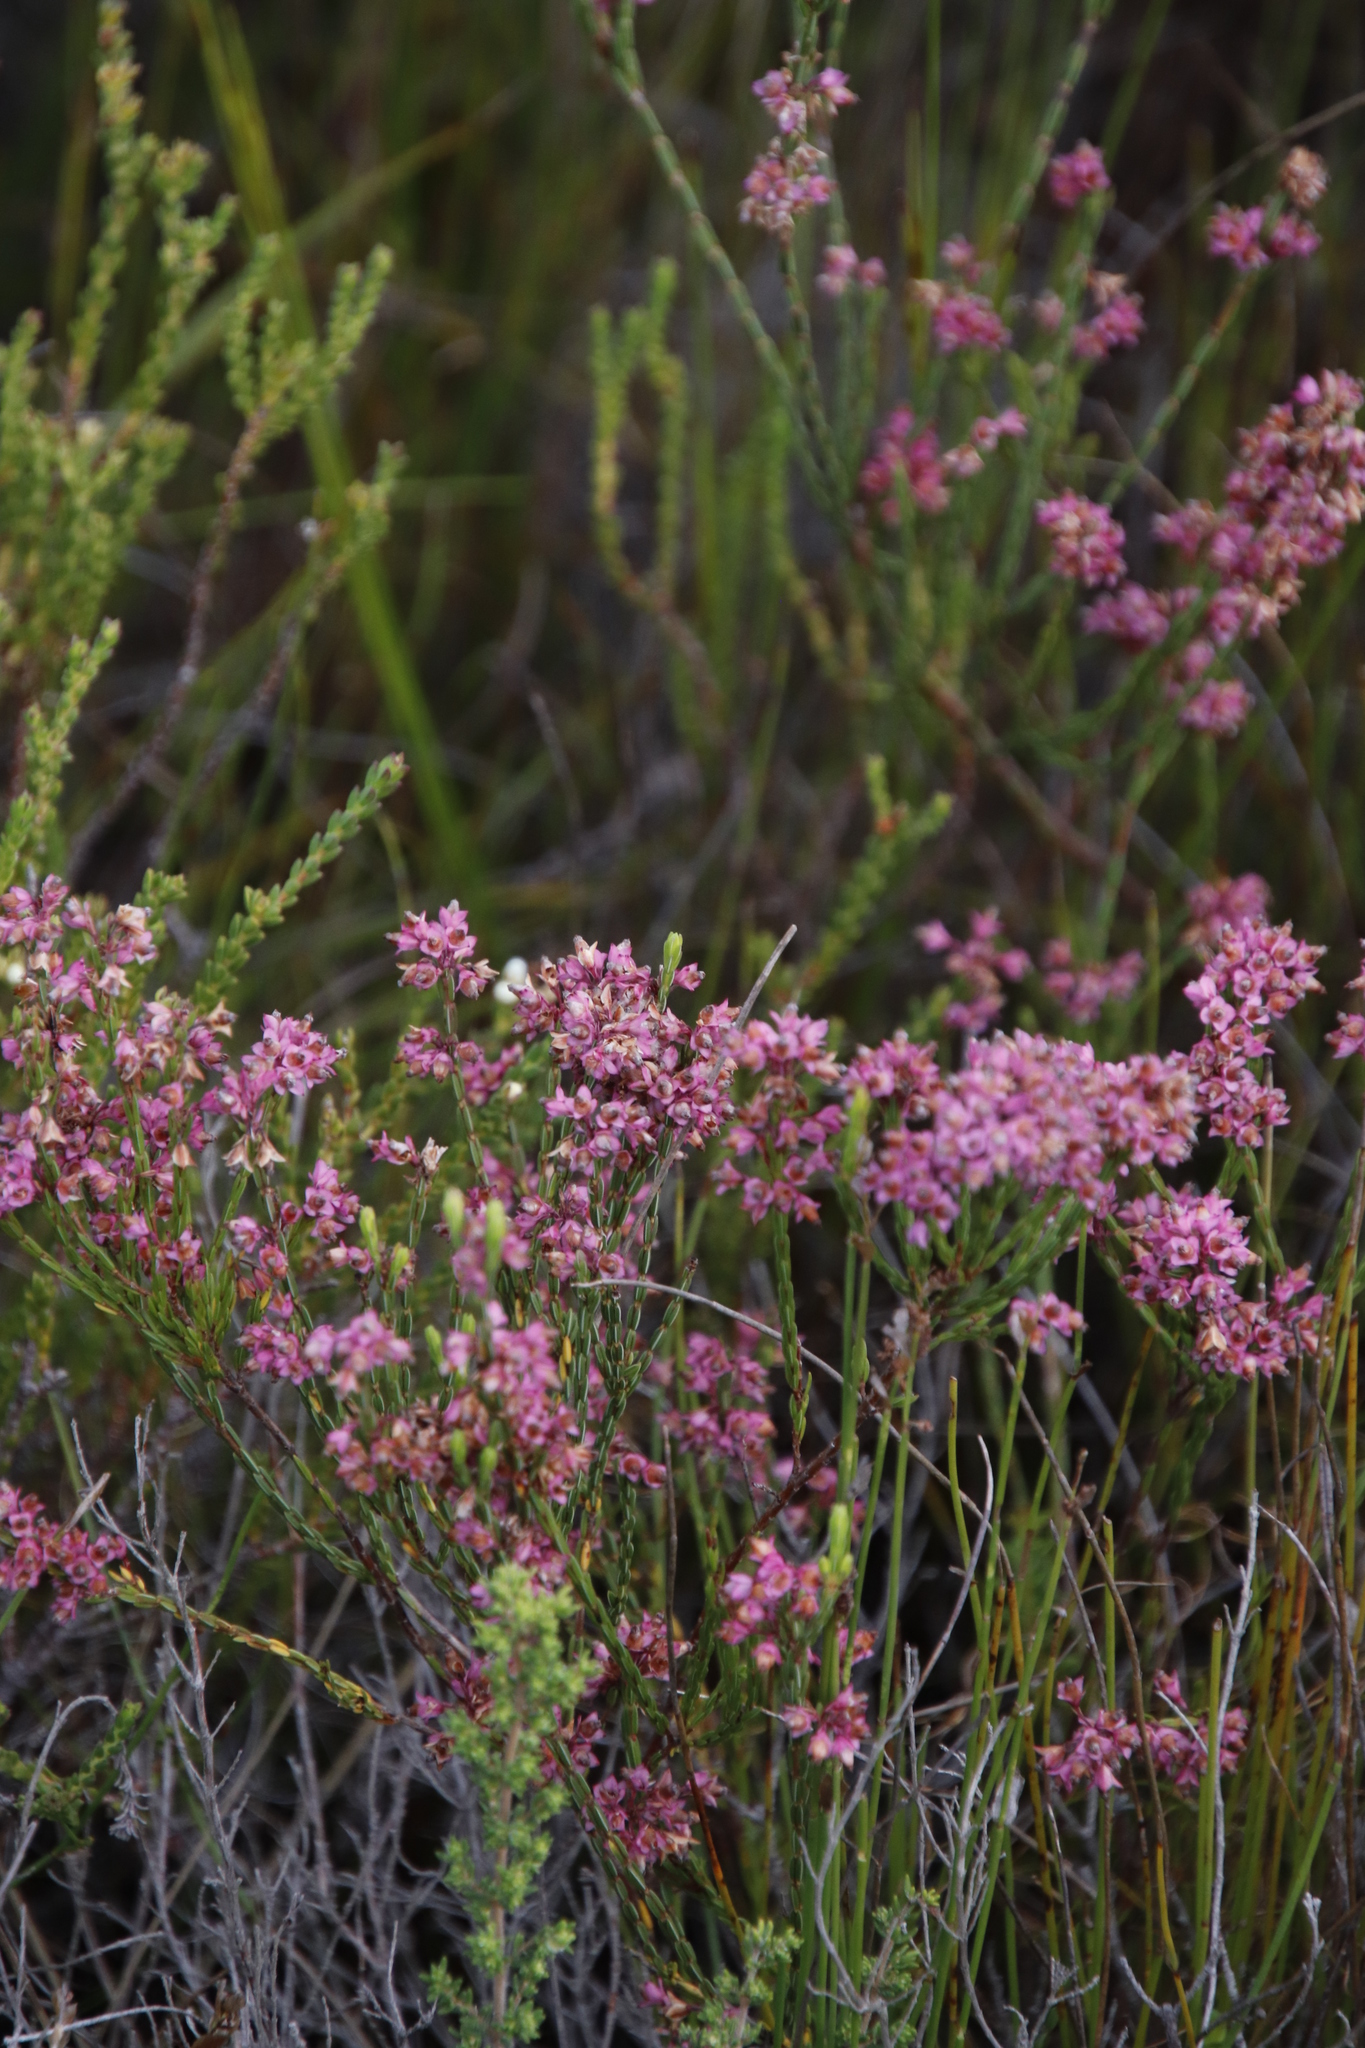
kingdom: Plantae
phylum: Tracheophyta
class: Magnoliopsida
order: Ericales
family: Ericaceae
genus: Erica
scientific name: Erica corifolia
